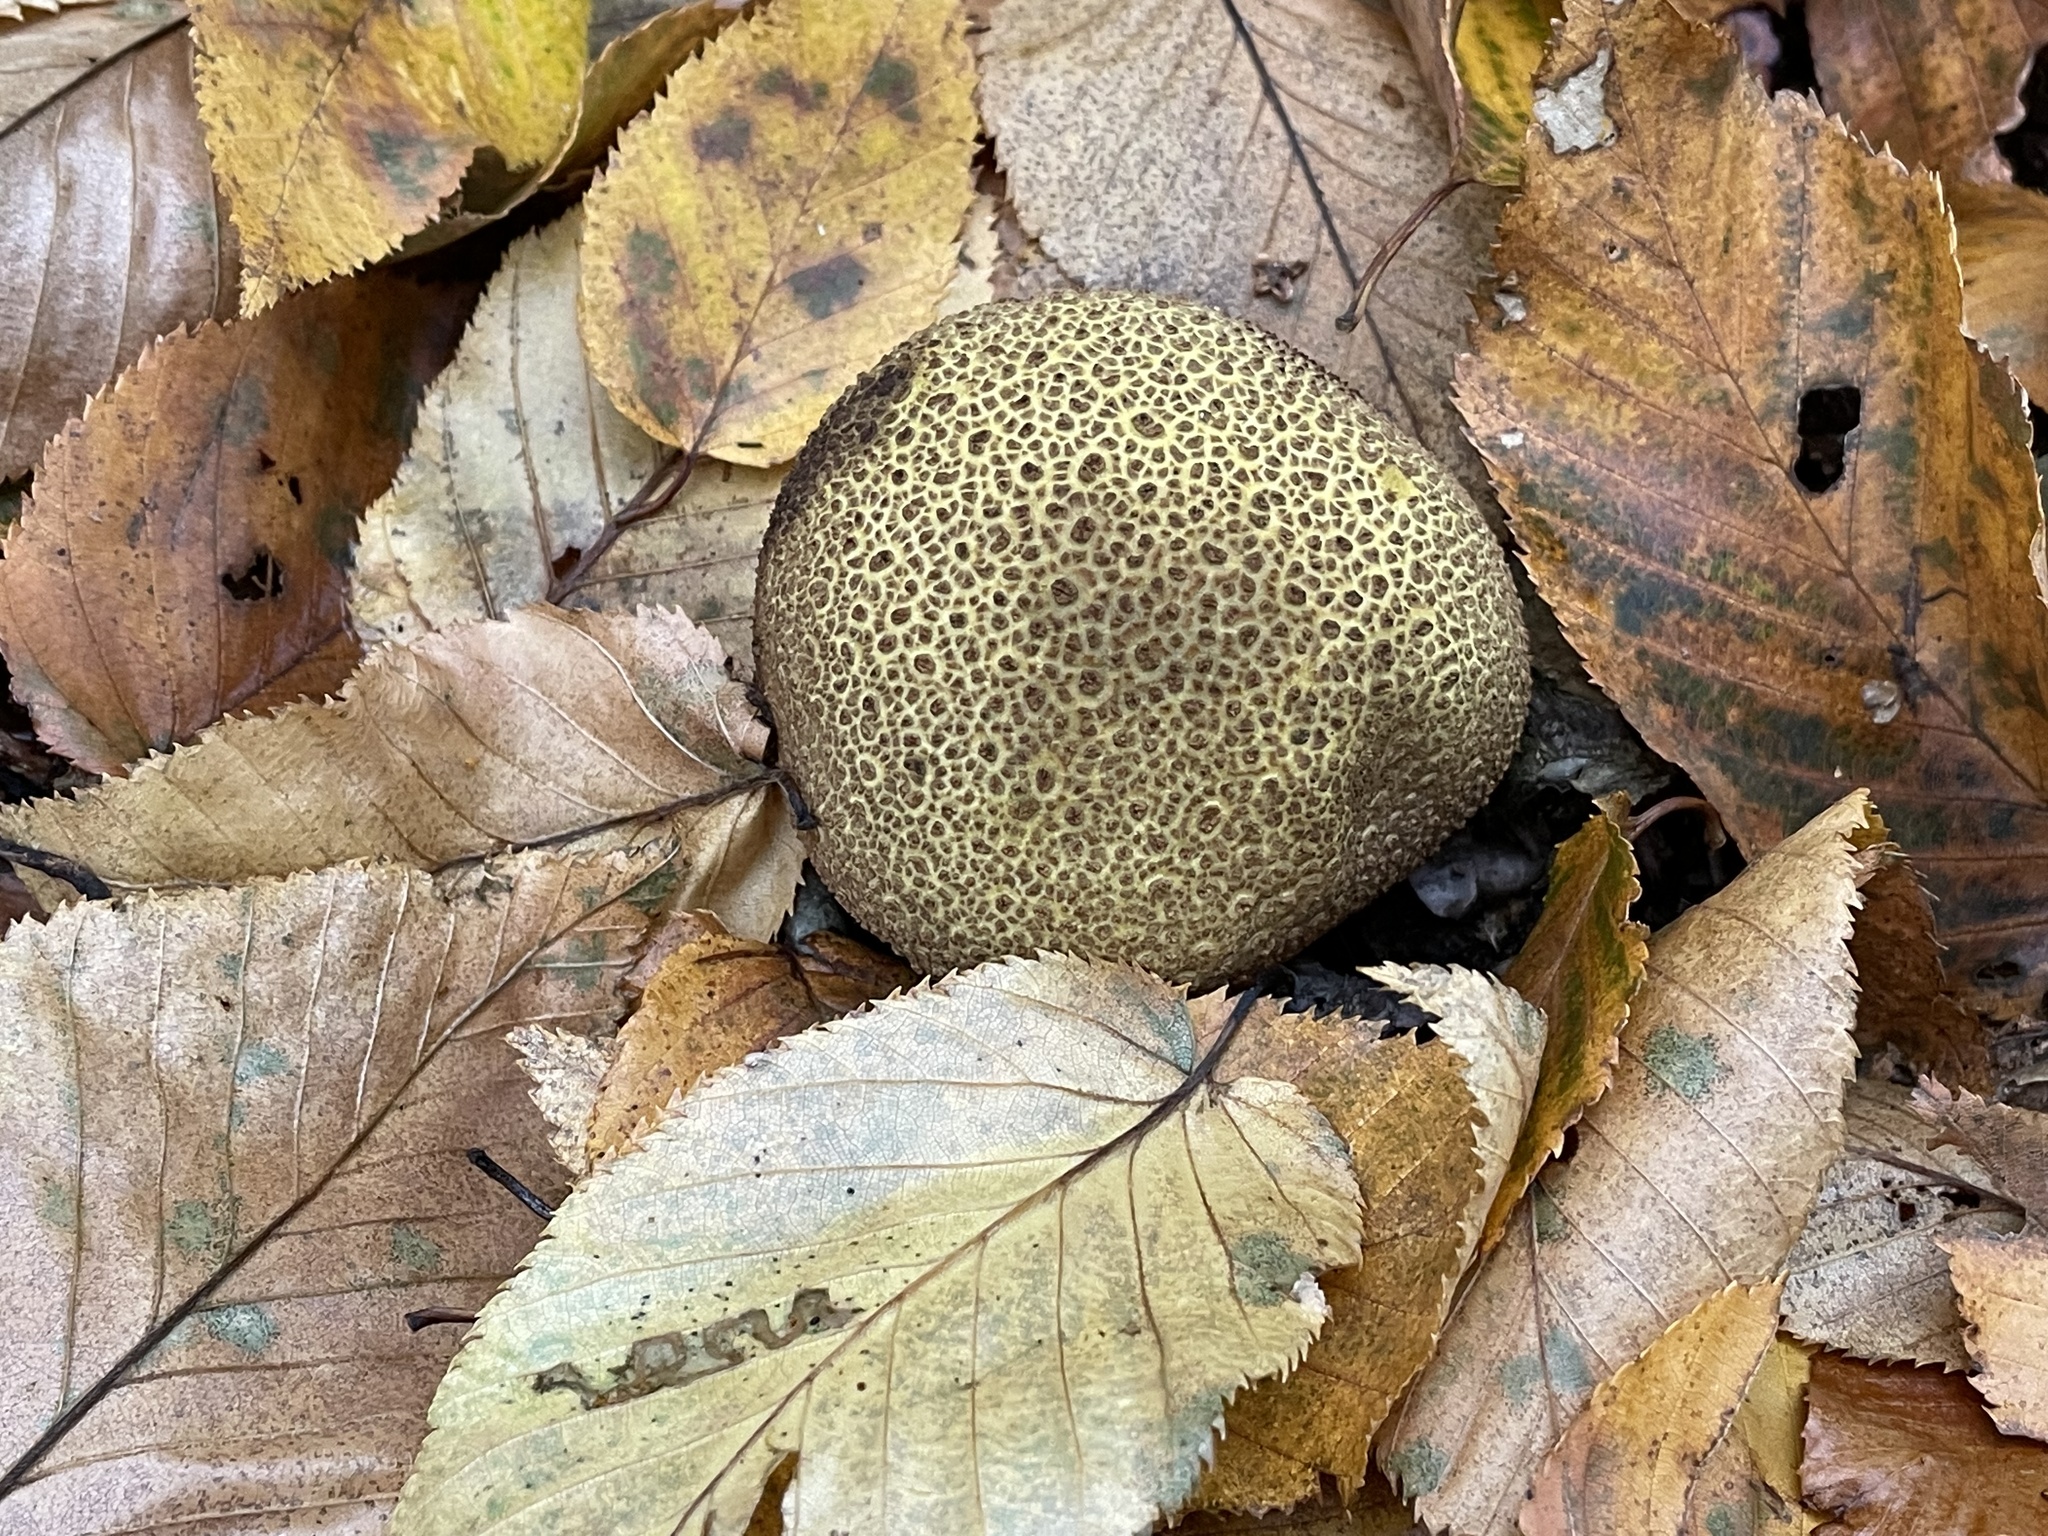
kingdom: Fungi
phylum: Basidiomycota
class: Agaricomycetes
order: Boletales
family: Sclerodermataceae
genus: Scleroderma
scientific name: Scleroderma citrinum
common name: Common earthball
